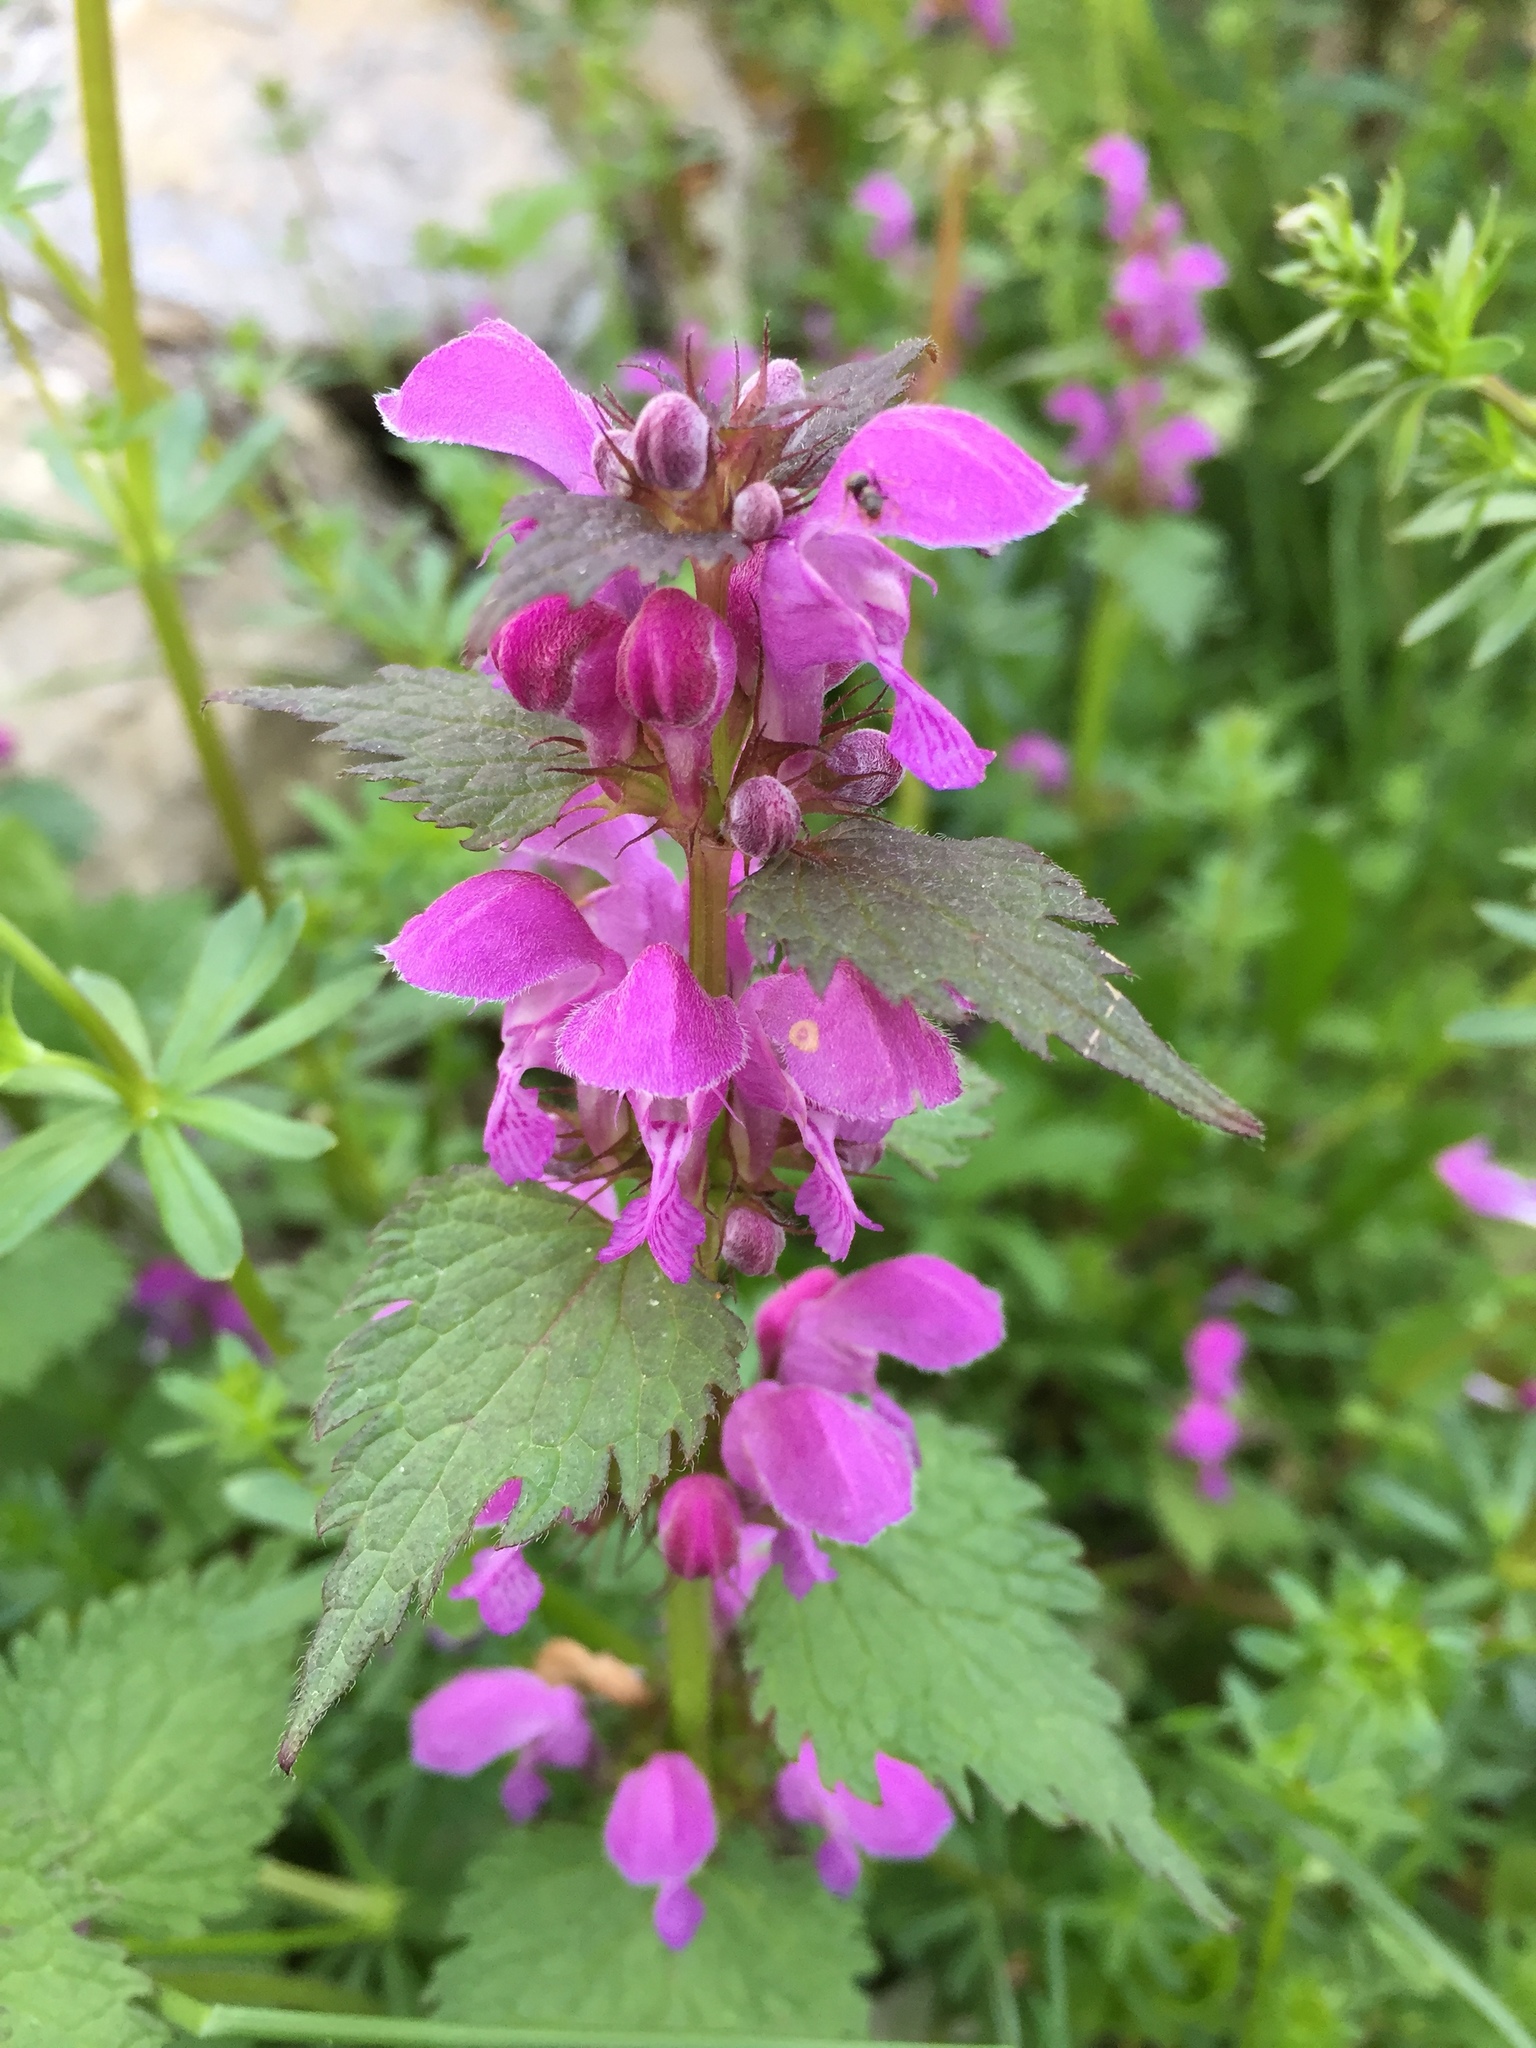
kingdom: Plantae
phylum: Tracheophyta
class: Magnoliopsida
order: Lamiales
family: Lamiaceae
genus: Lamium
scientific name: Lamium maculatum
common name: Spotted dead-nettle
